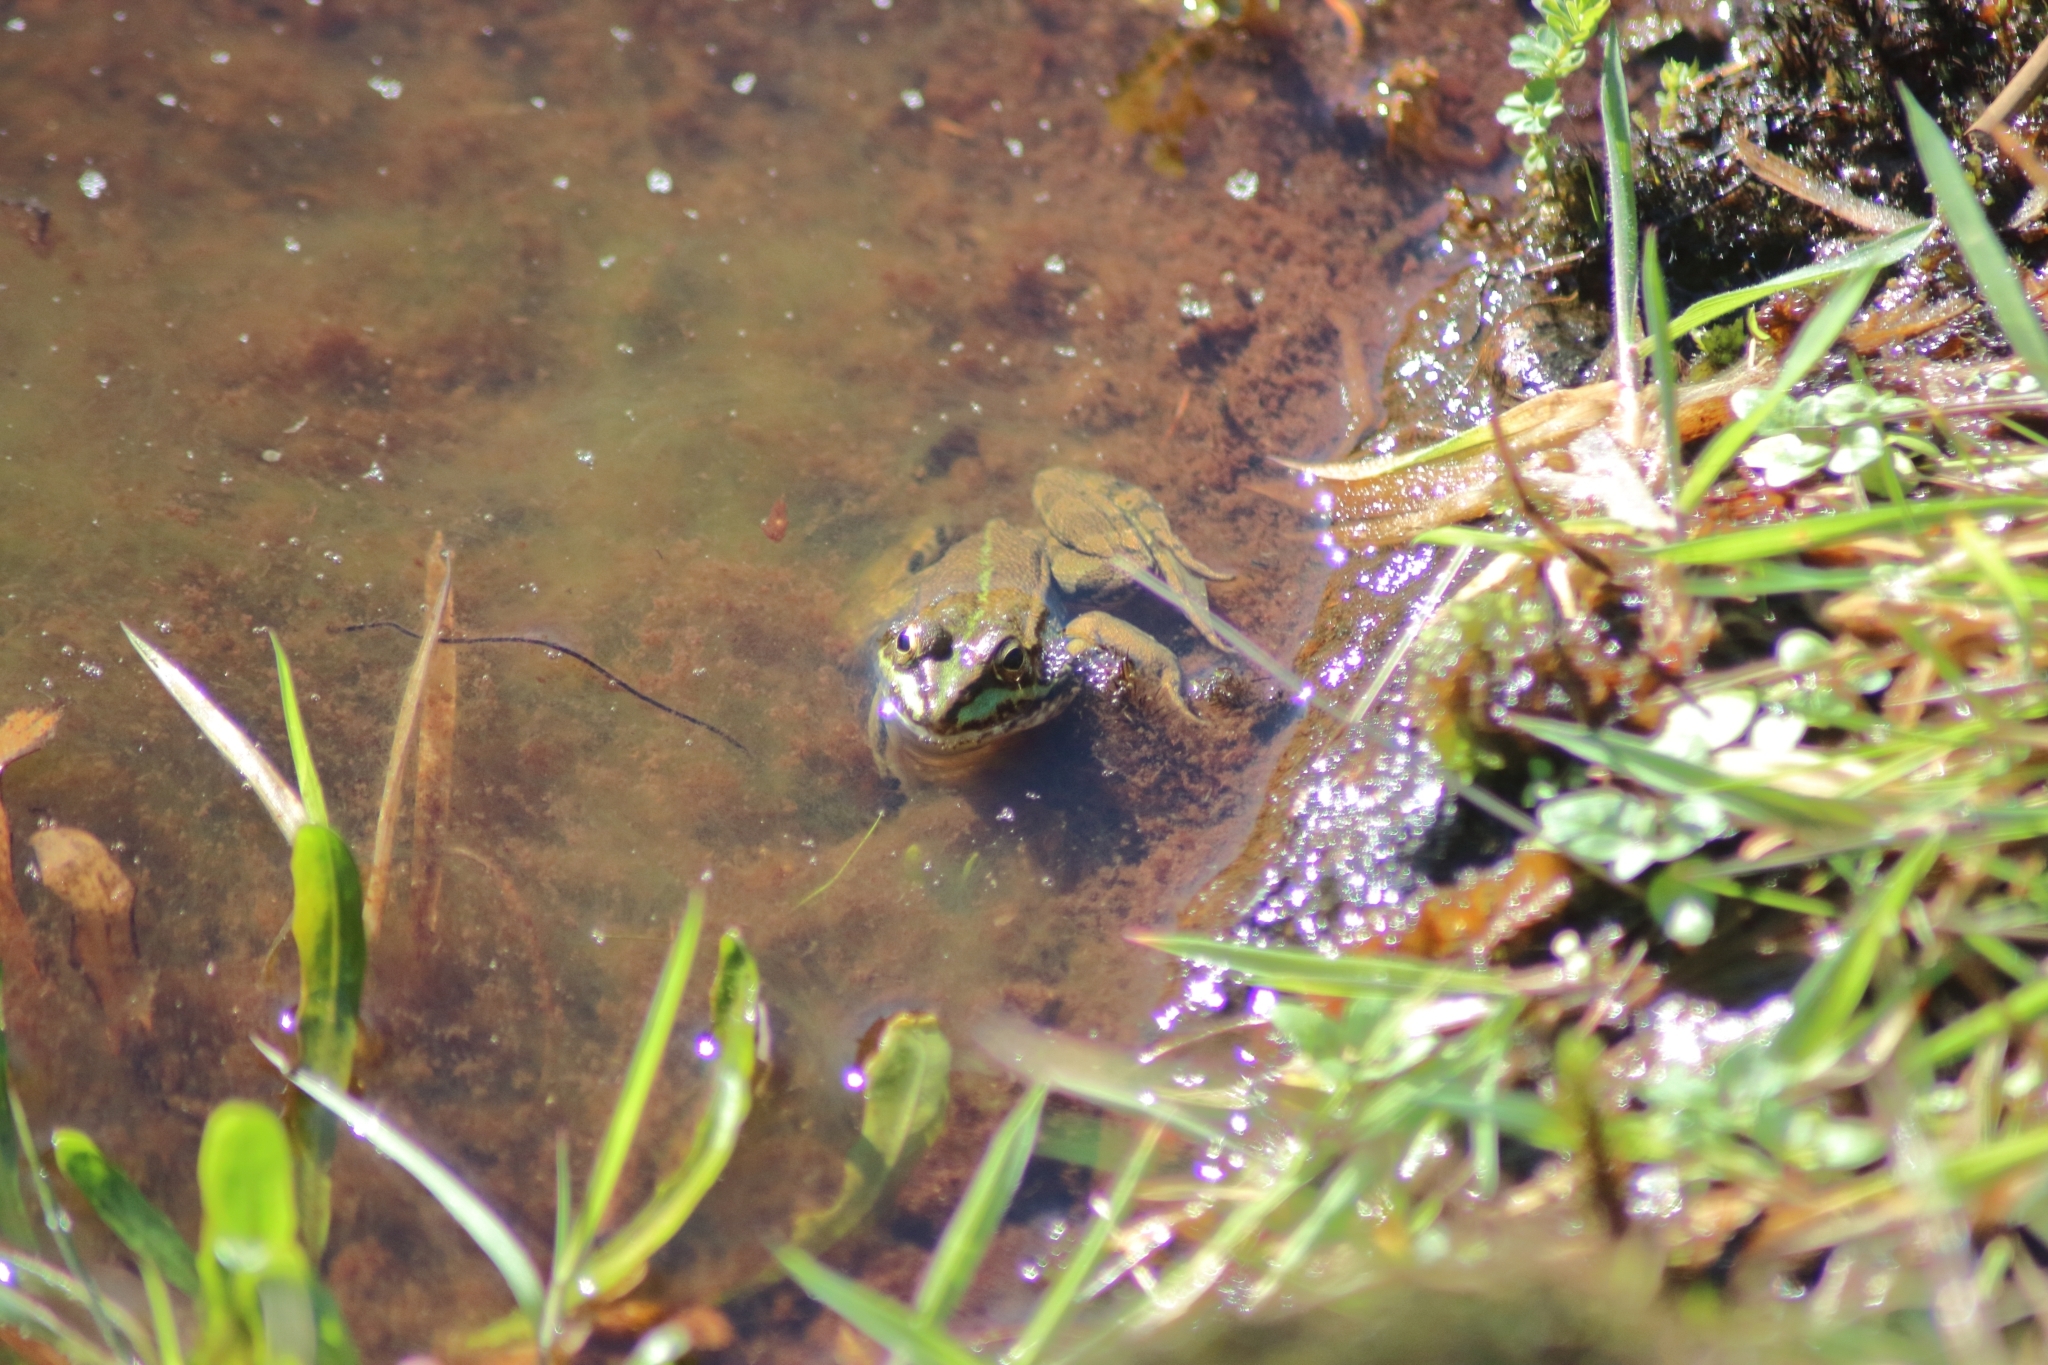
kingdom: Animalia
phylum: Chordata
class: Amphibia
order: Anura
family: Ranidae
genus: Pelophylax
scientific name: Pelophylax perezi
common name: Perez's frog
